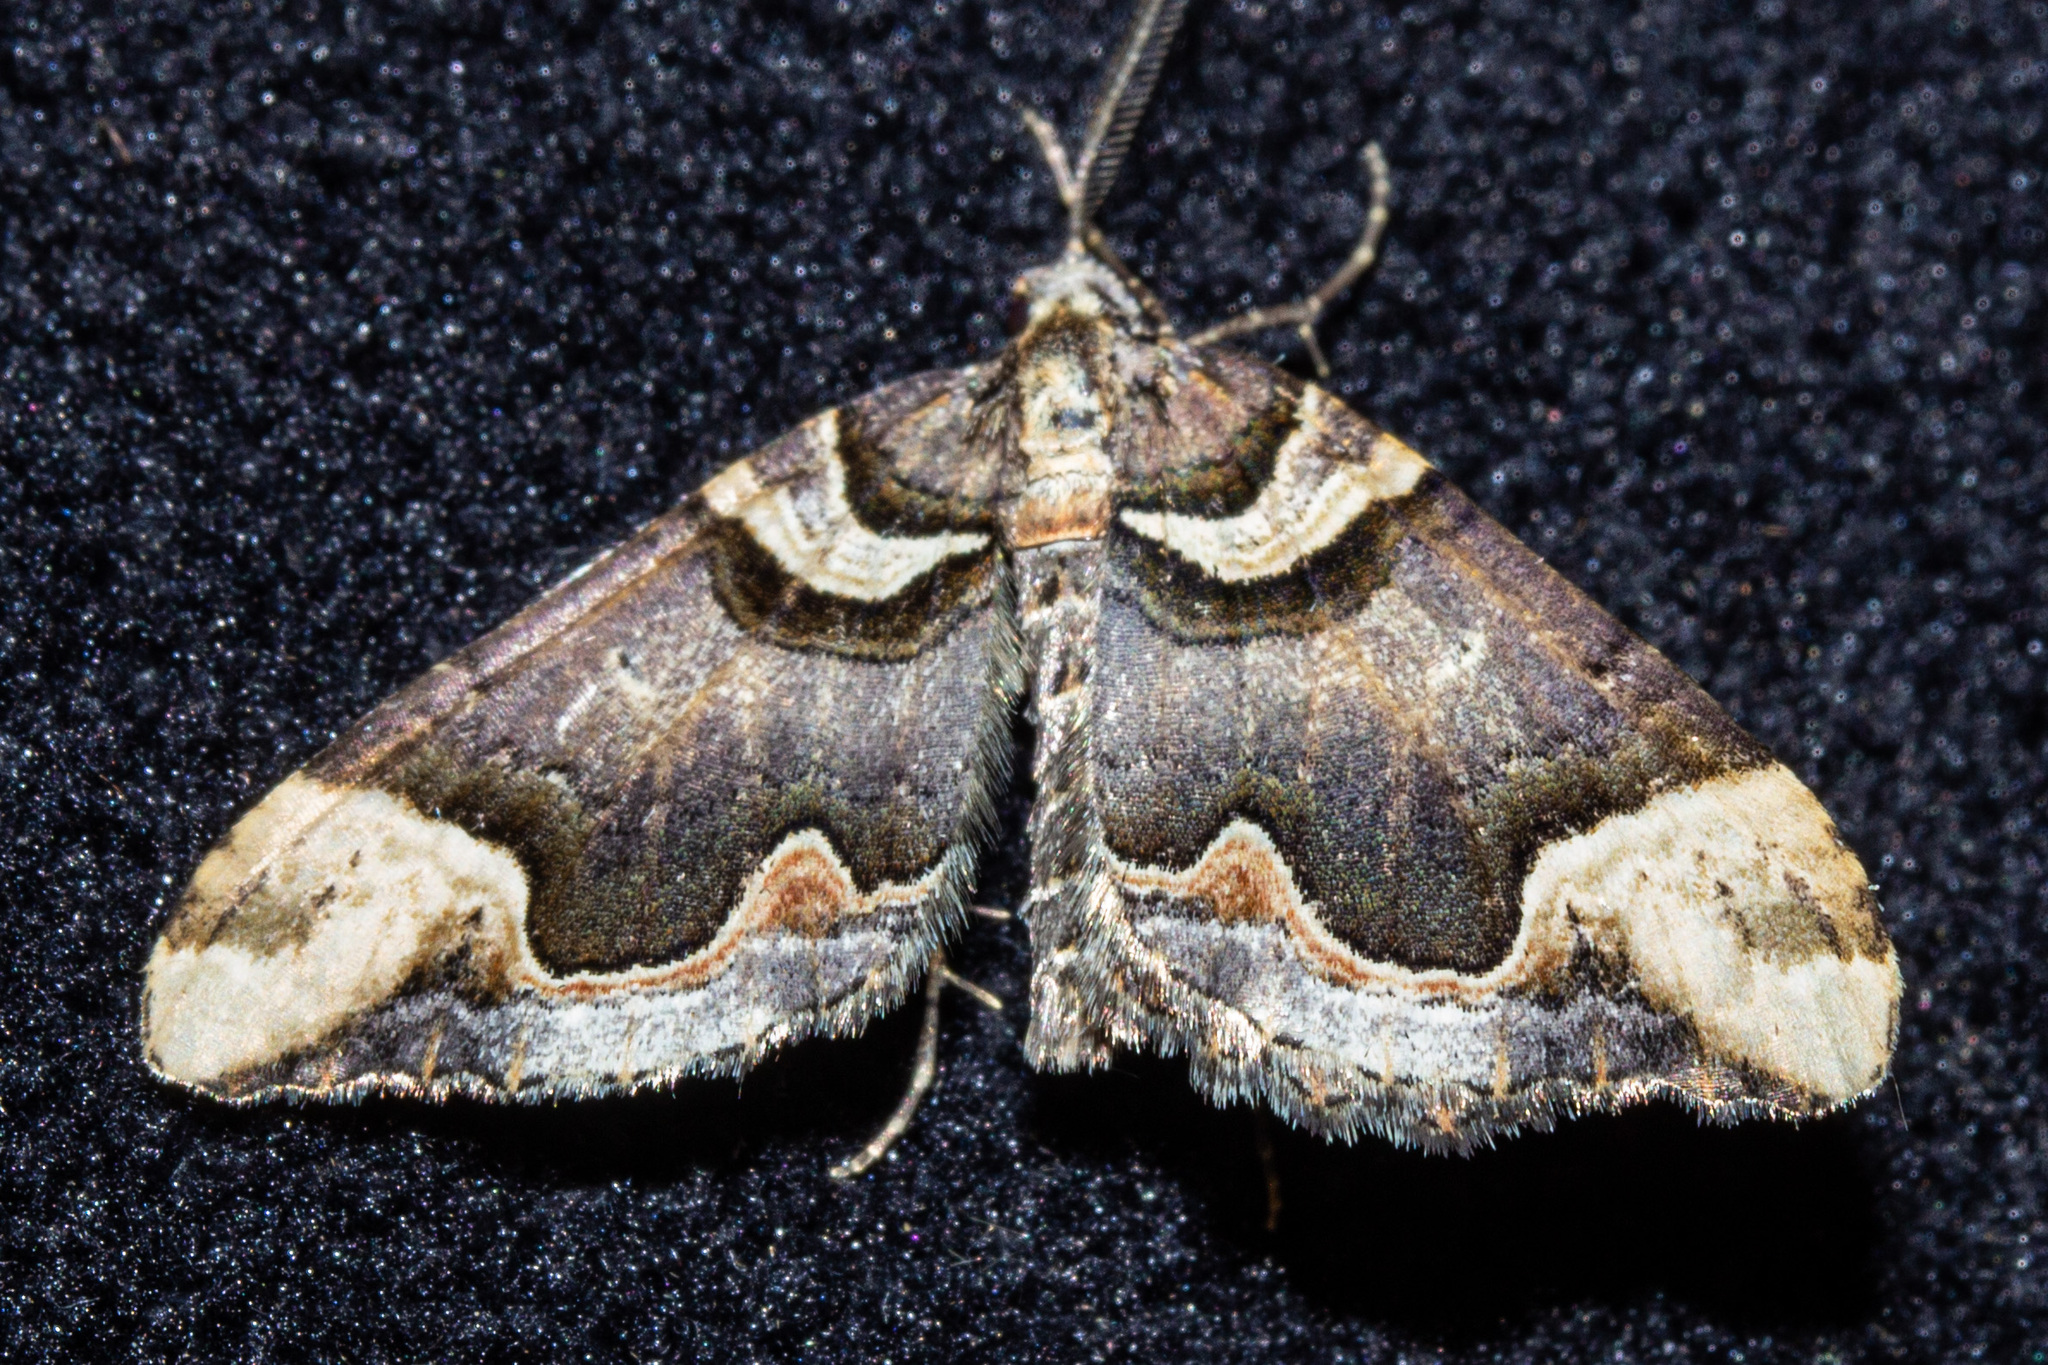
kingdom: Animalia
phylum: Arthropoda
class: Insecta
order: Lepidoptera
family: Geometridae
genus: Asaphodes
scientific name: Asaphodes chlamydota
